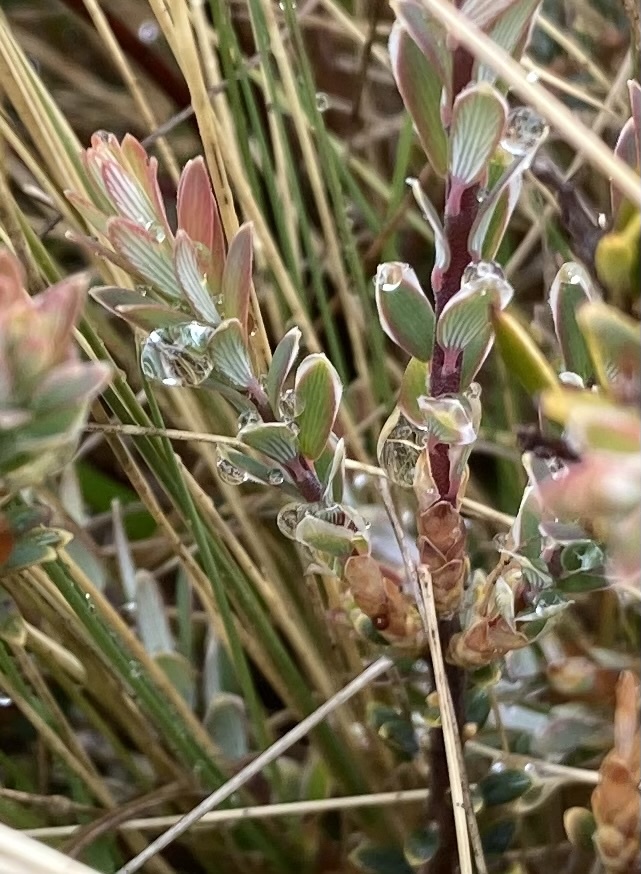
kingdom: Plantae
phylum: Tracheophyta
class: Magnoliopsida
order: Ericales
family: Ericaceae
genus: Acrothamnus
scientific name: Acrothamnus colensoi
